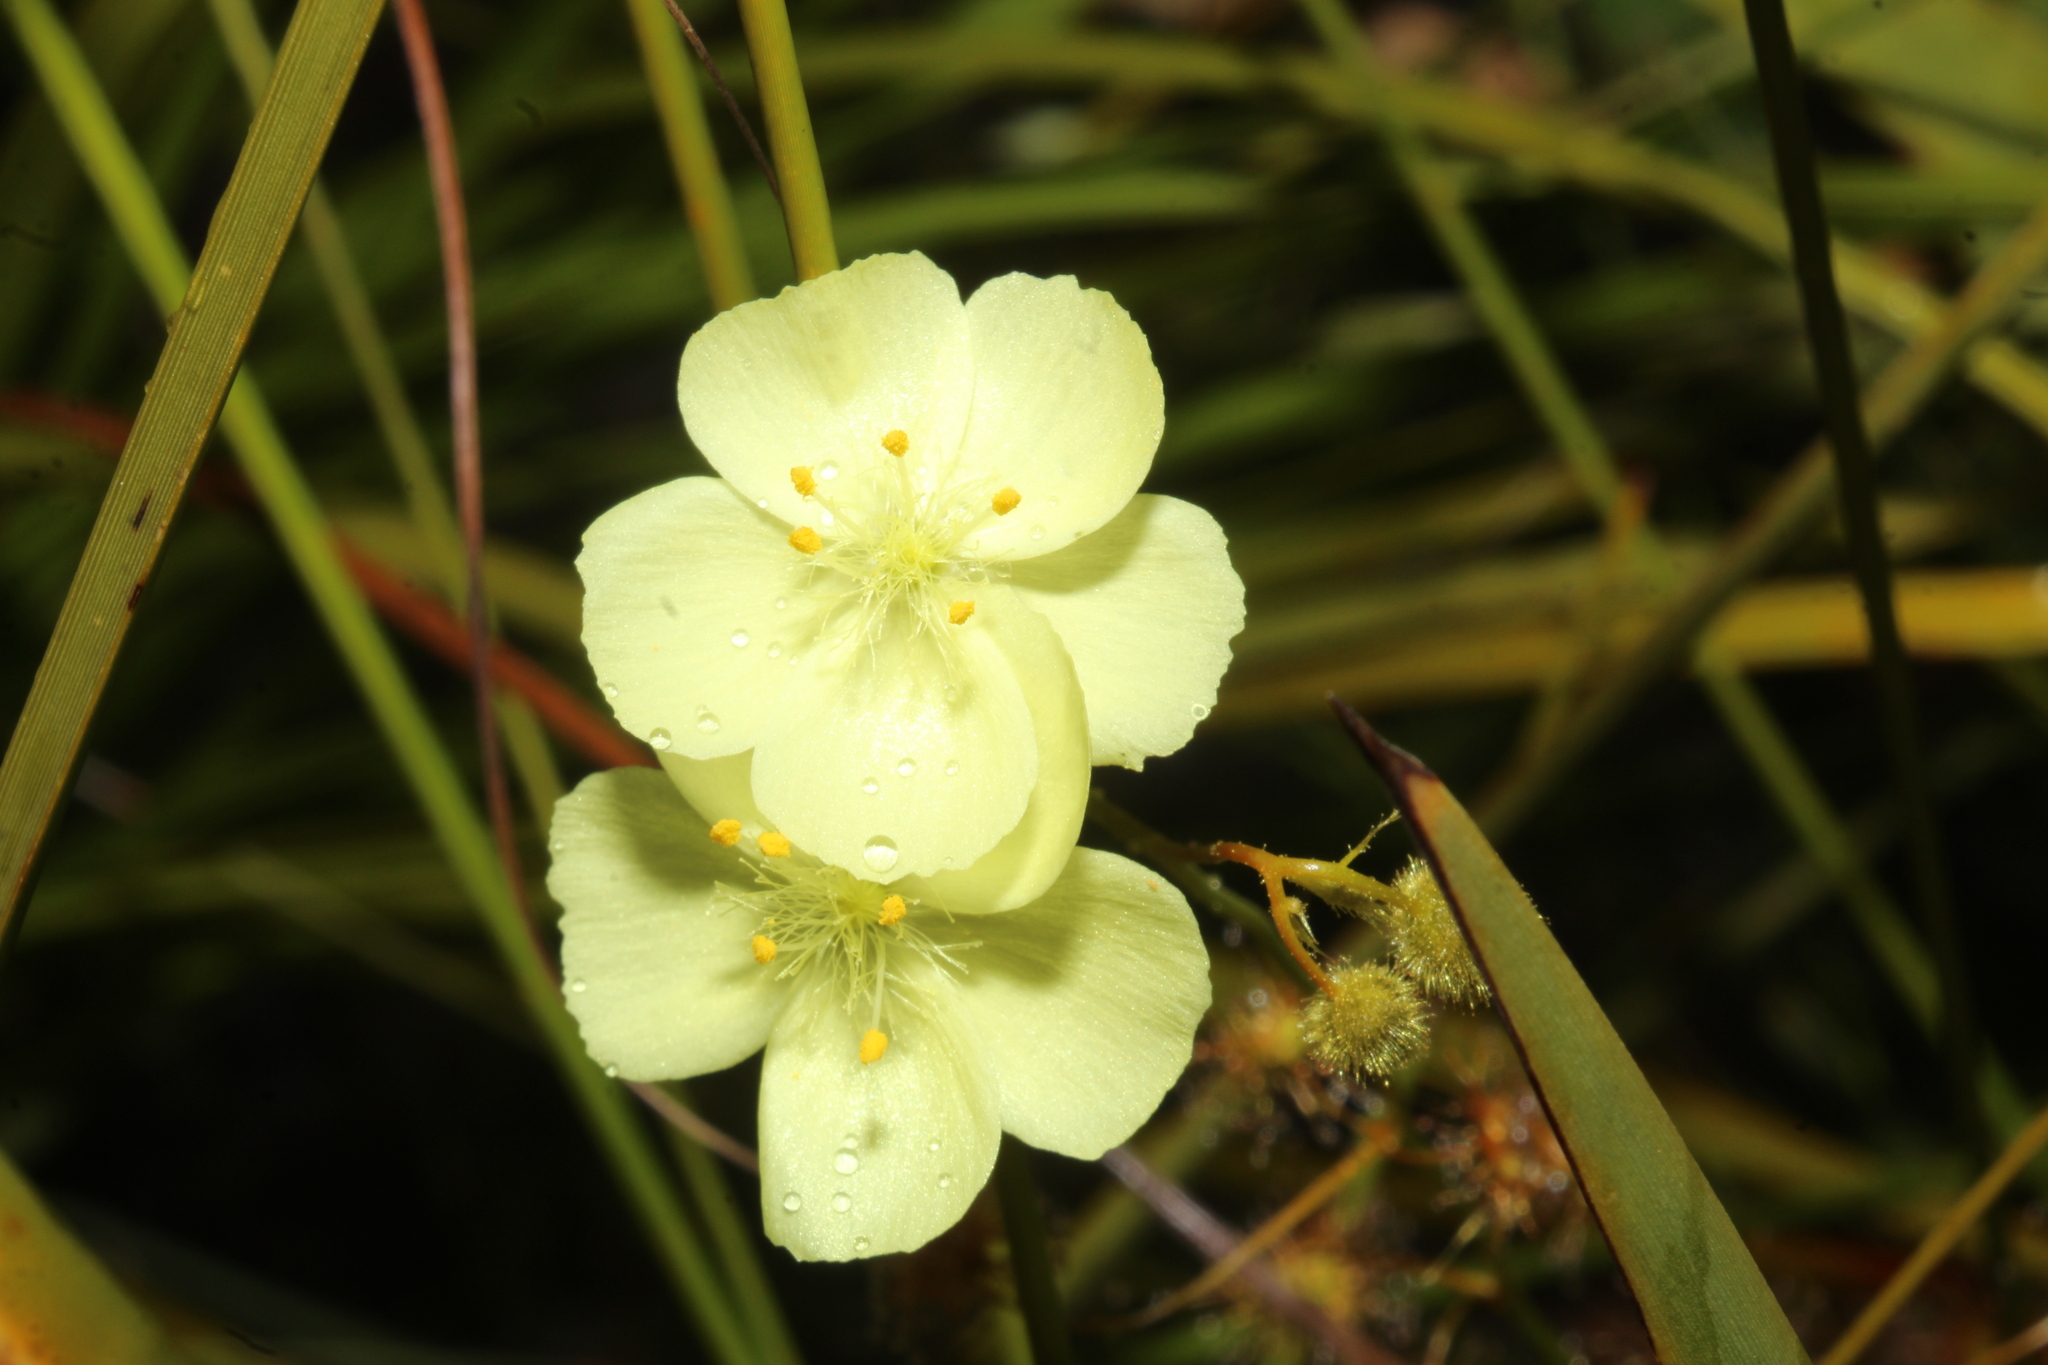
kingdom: Plantae
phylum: Tracheophyta
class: Magnoliopsida
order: Caryophyllales
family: Droseraceae
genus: Drosera
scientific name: Drosera sulphurea
